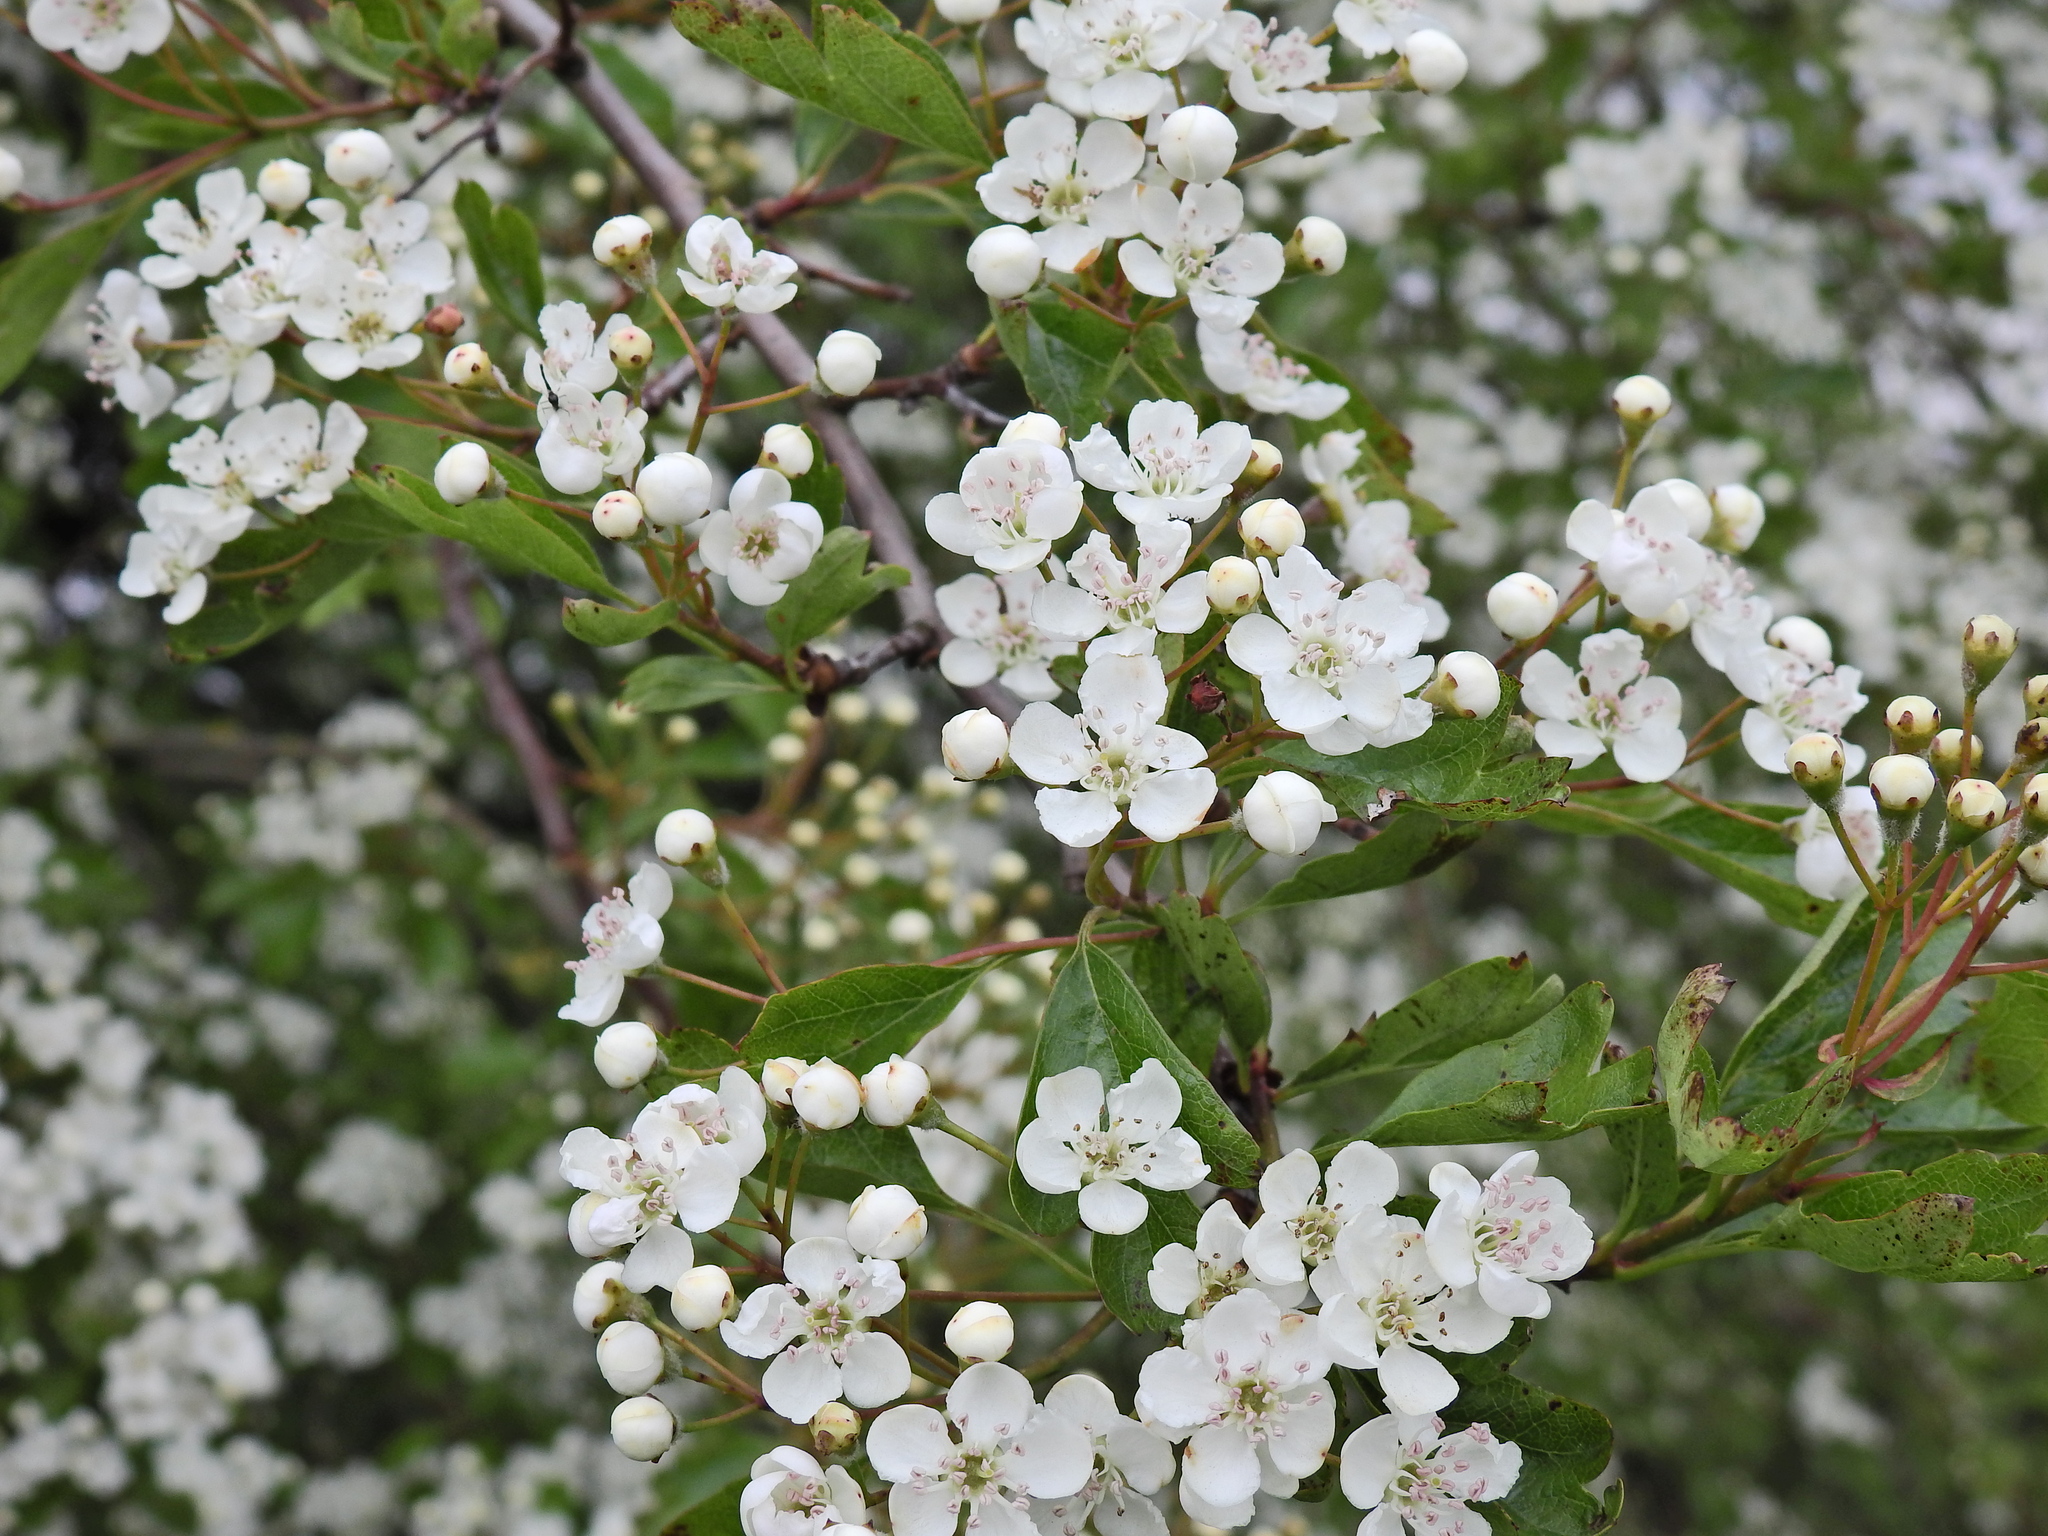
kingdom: Plantae
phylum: Tracheophyta
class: Magnoliopsida
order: Rosales
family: Rosaceae
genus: Crataegus
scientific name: Crataegus monogyna
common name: Hawthorn
